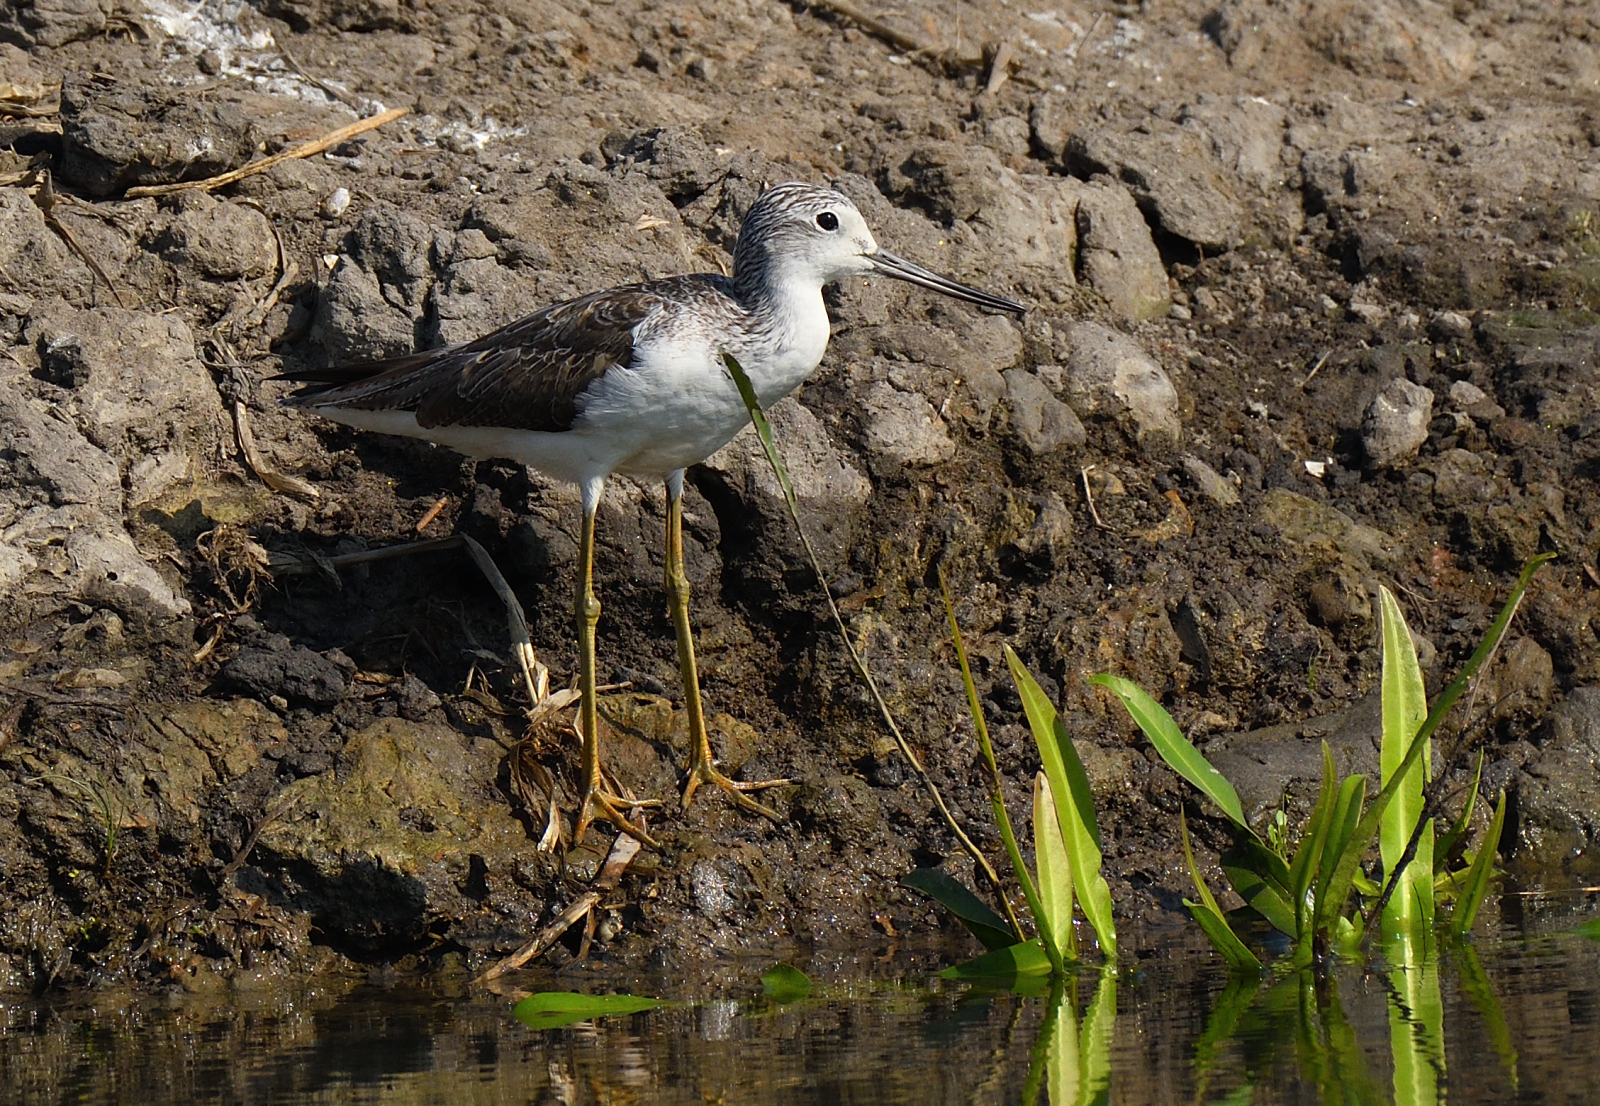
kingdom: Animalia
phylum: Chordata
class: Aves
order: Charadriiformes
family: Scolopacidae
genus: Tringa
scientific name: Tringa nebularia
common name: Common greenshank
